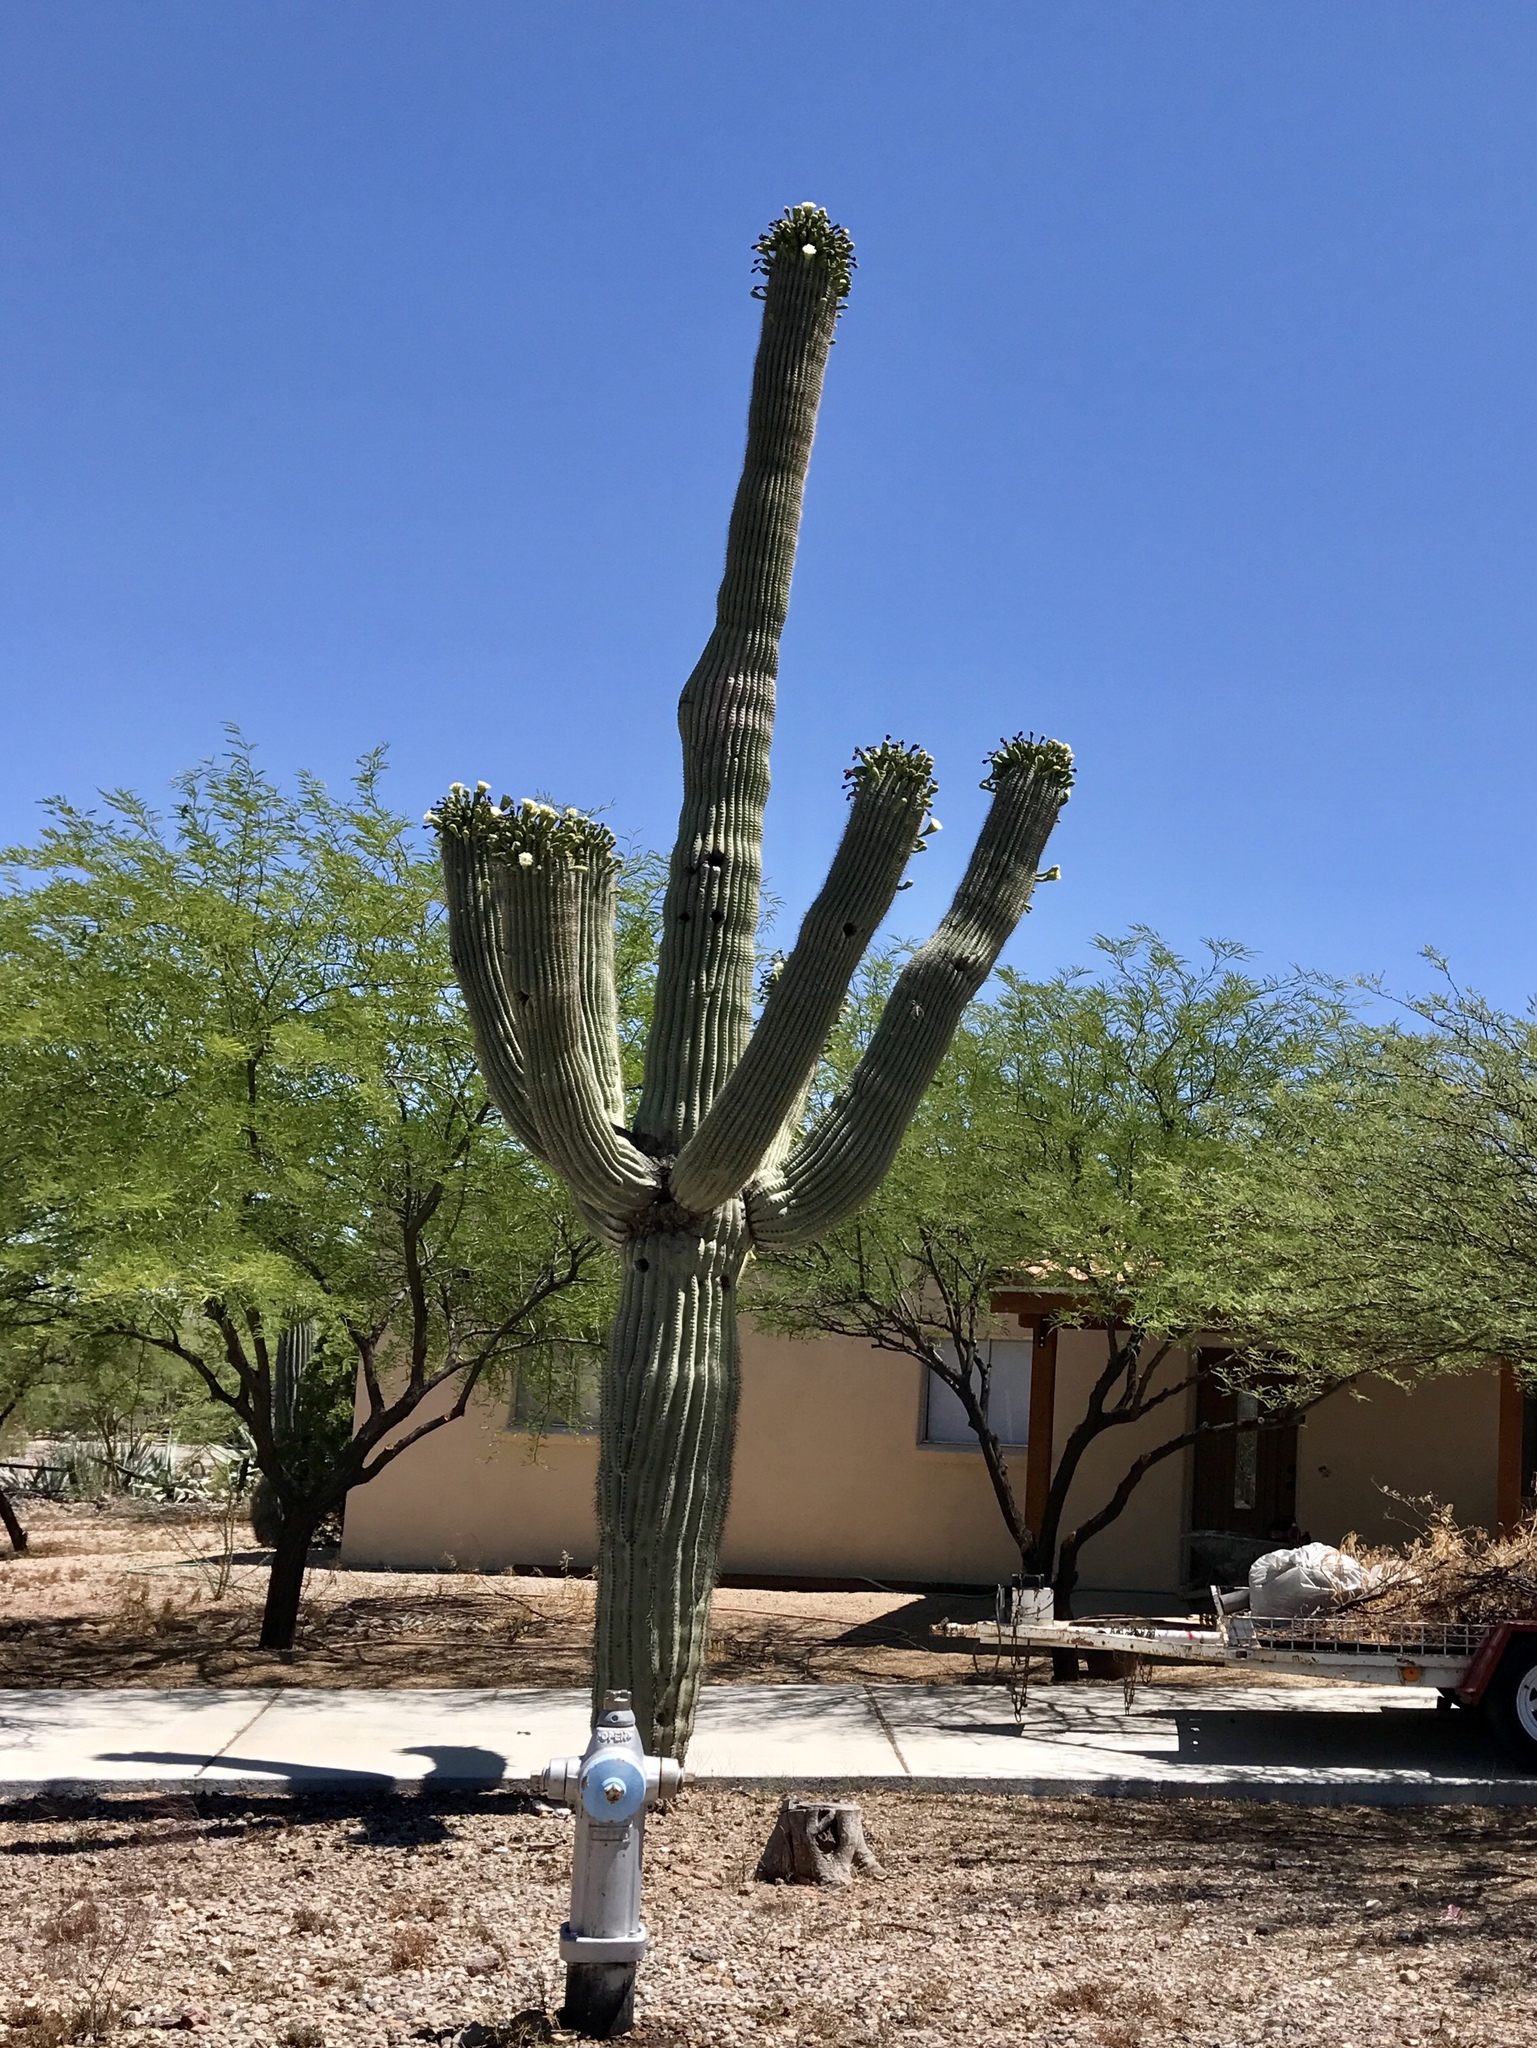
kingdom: Plantae
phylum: Tracheophyta
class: Magnoliopsida
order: Caryophyllales
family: Cactaceae
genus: Carnegiea
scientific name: Carnegiea gigantea
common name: Saguaro
